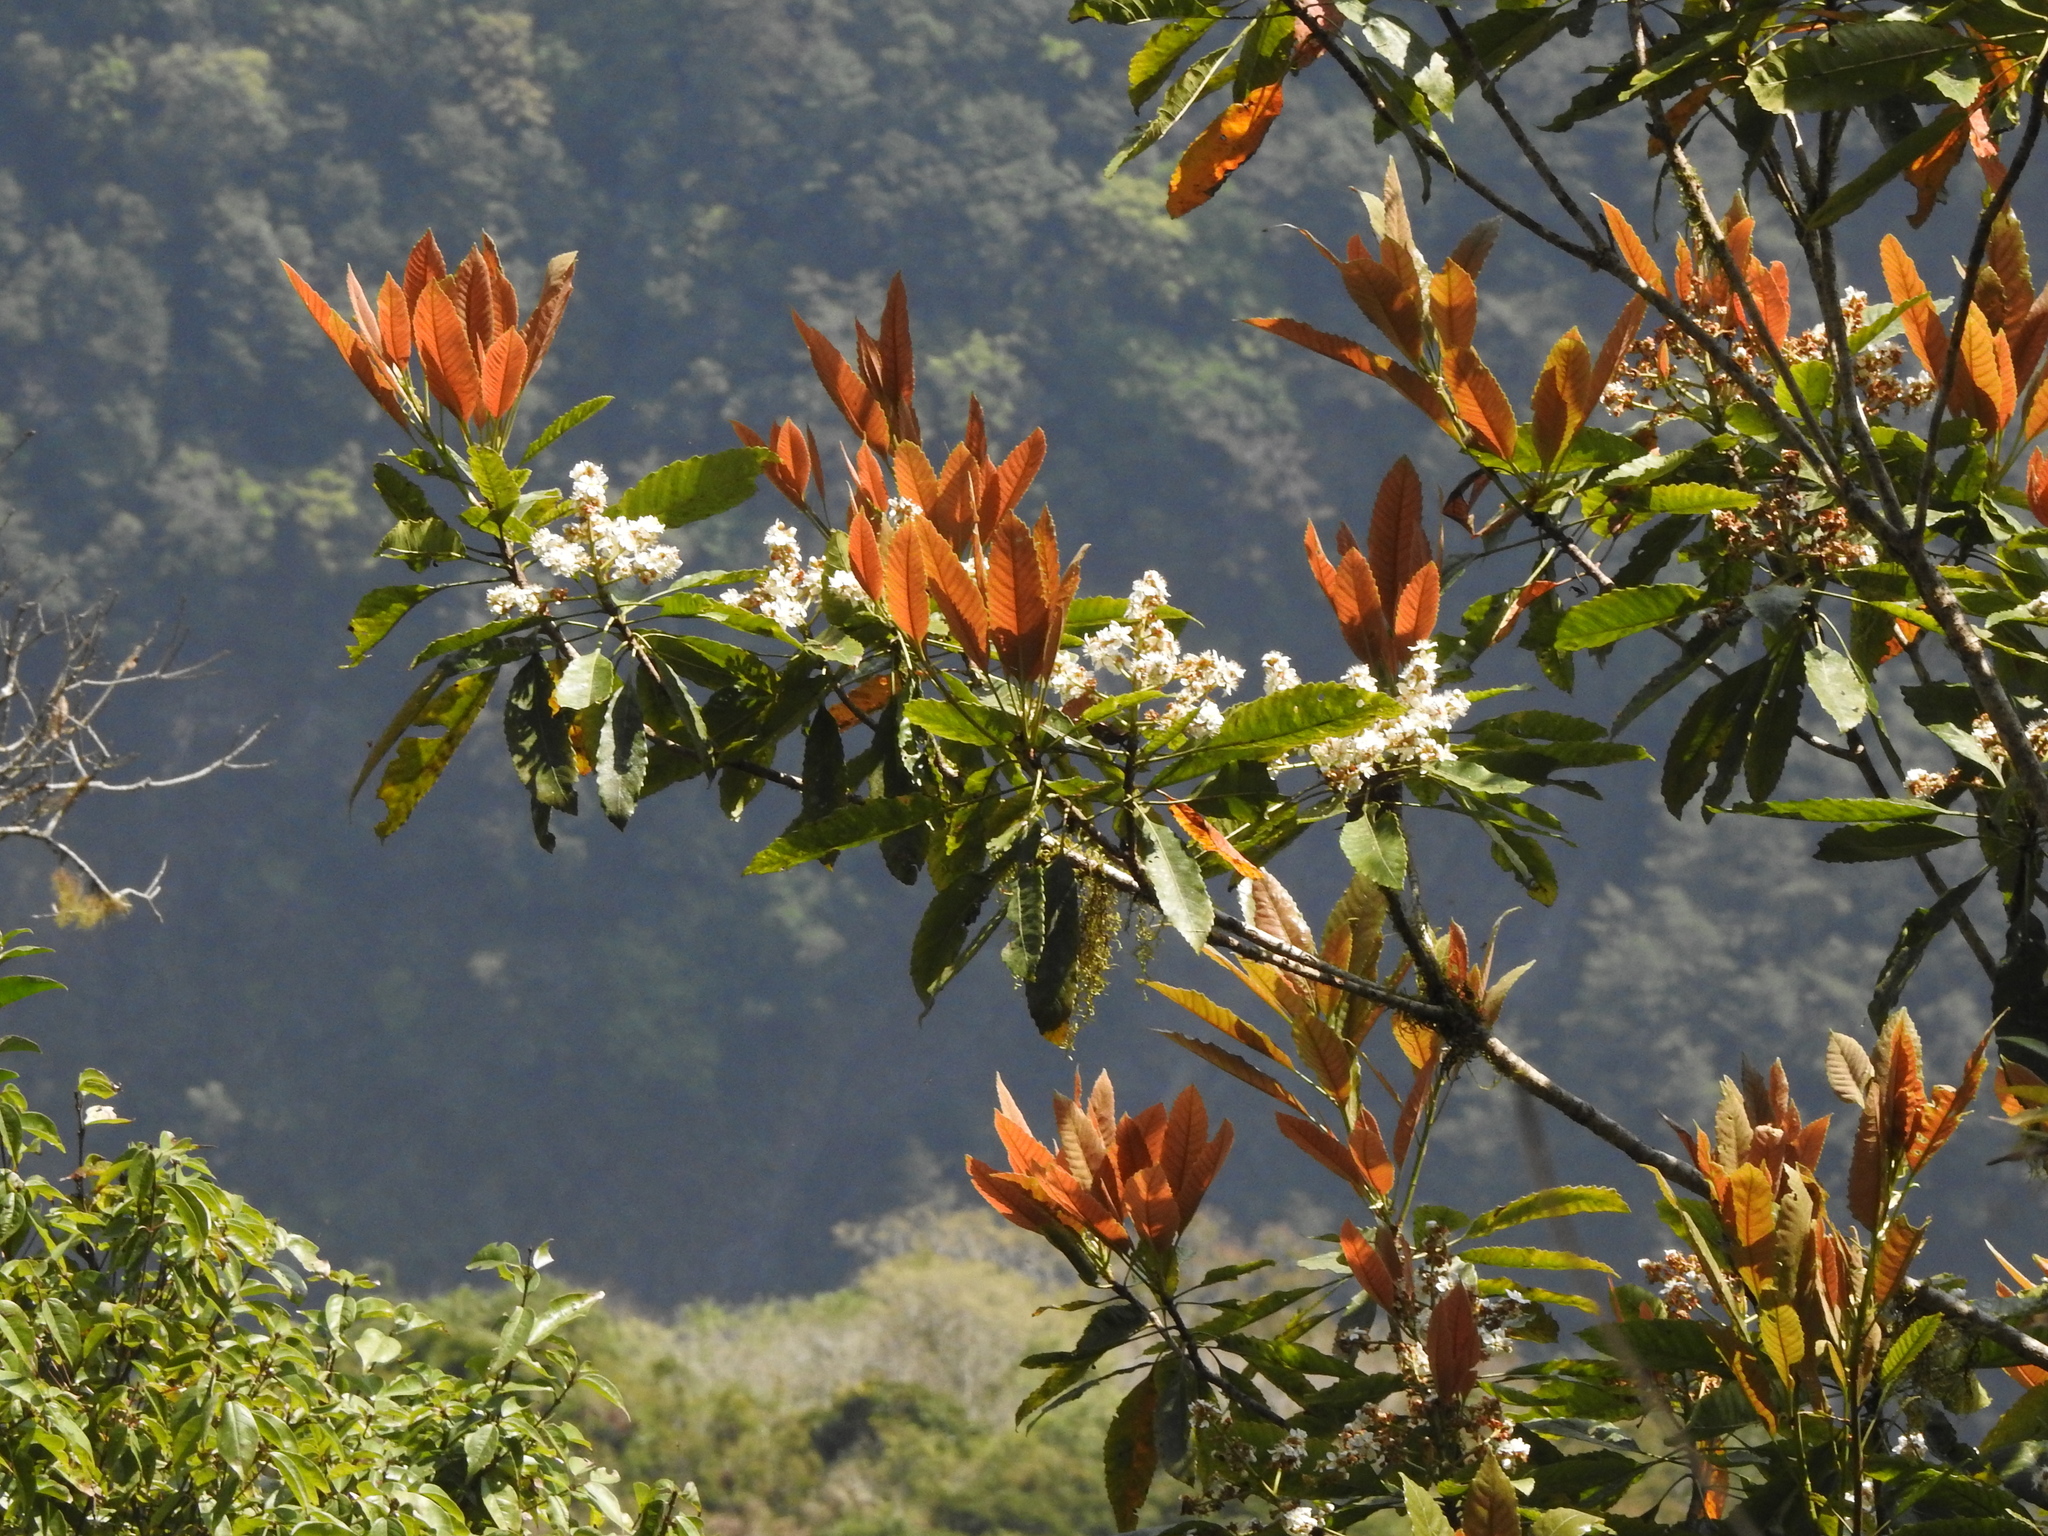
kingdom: Plantae
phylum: Tracheophyta
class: Magnoliopsida
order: Rosales
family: Rosaceae
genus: Rhaphiolepis
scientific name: Rhaphiolepis deflexa
